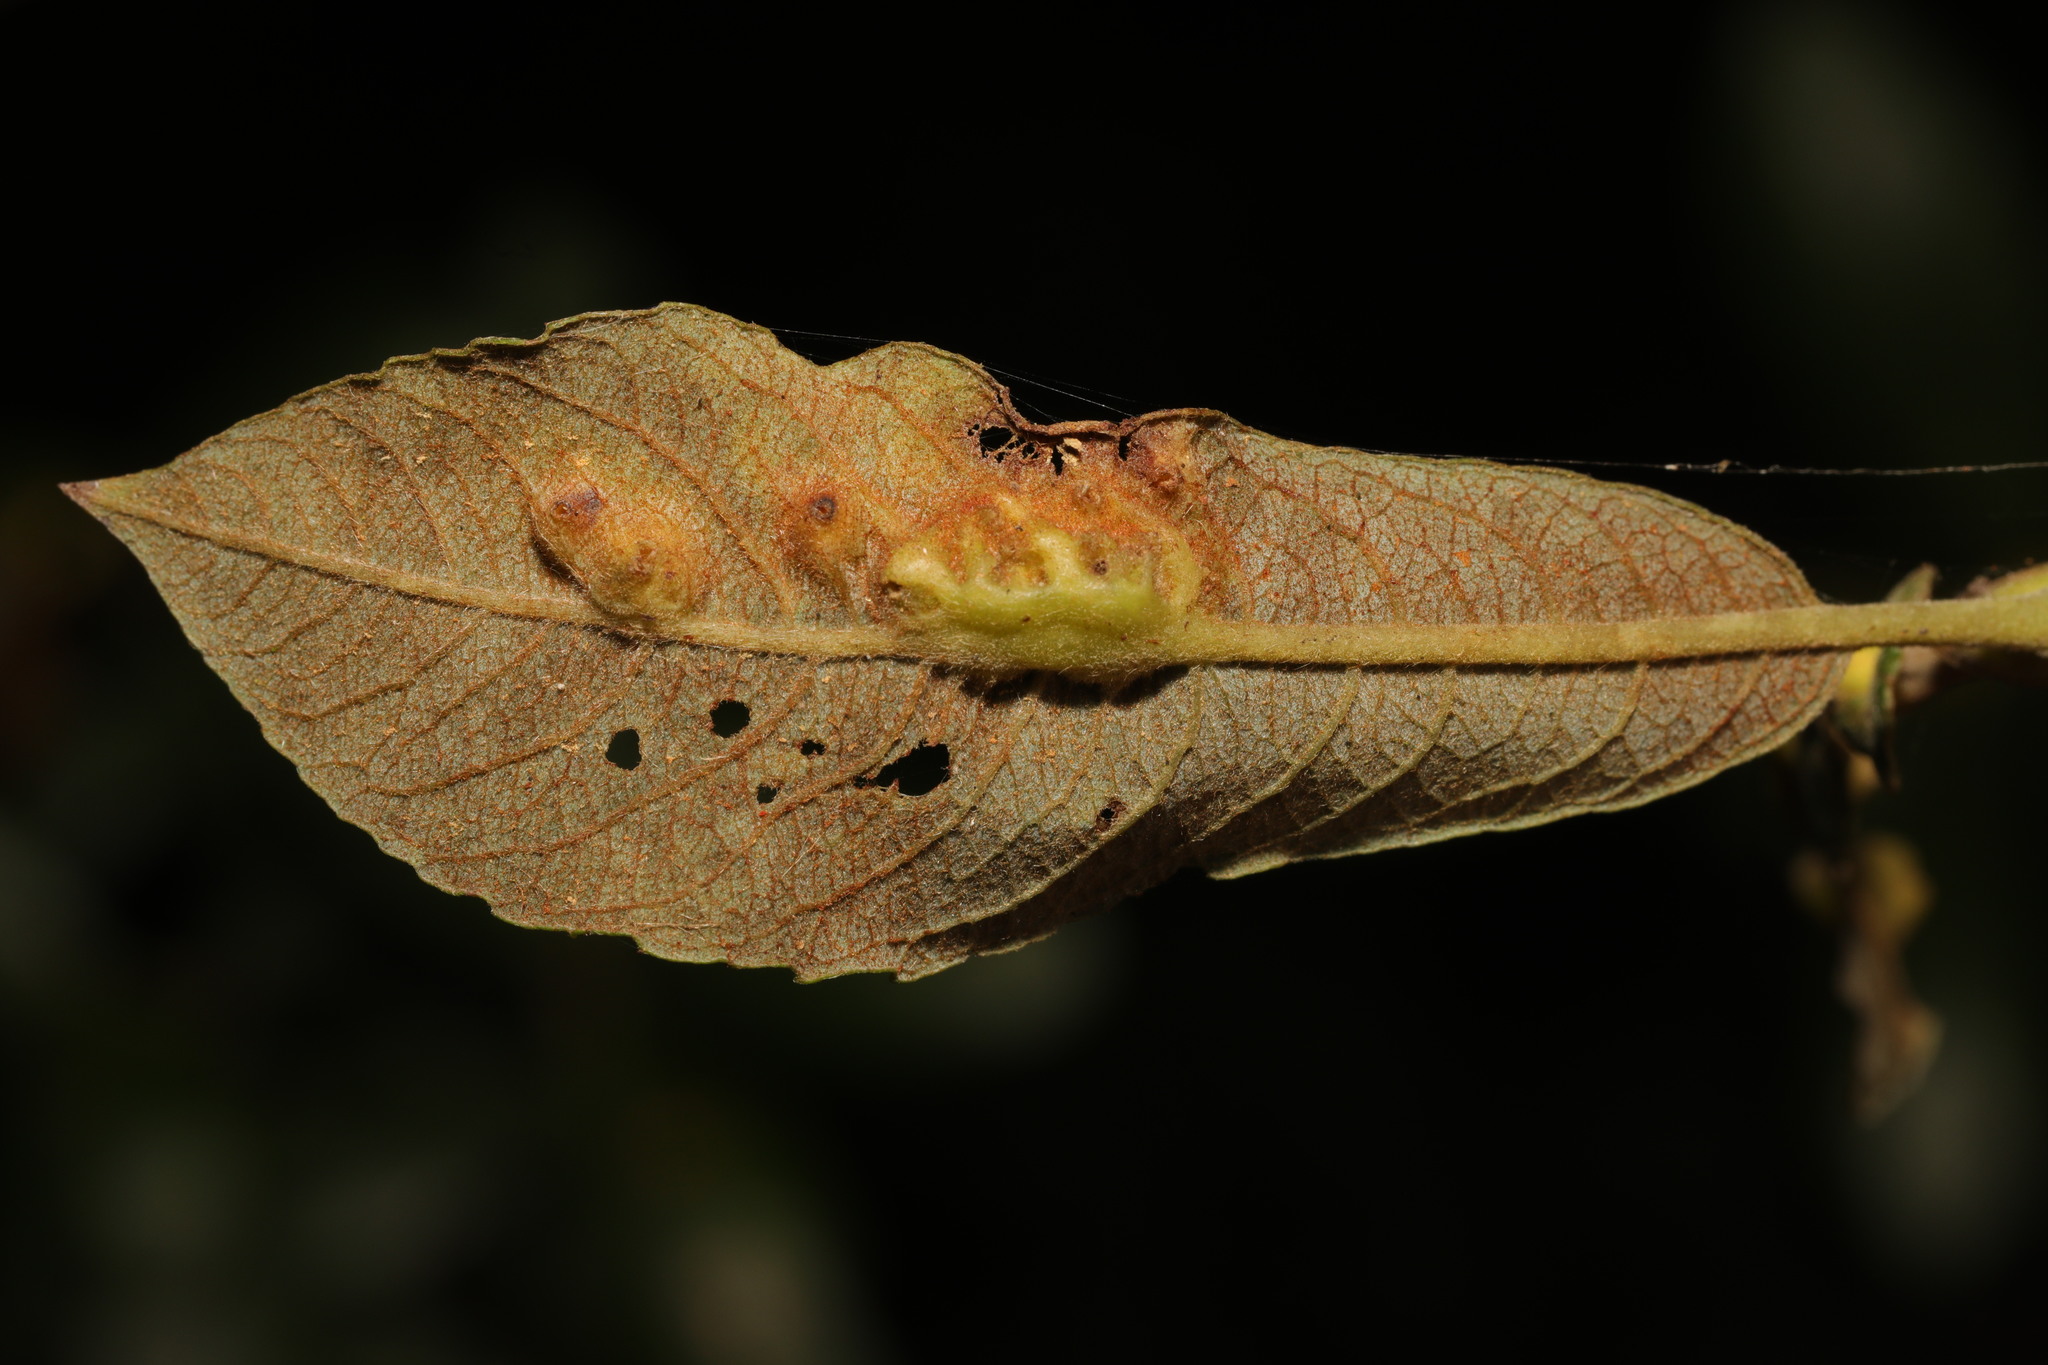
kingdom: Animalia
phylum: Arthropoda
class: Insecta
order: Diptera
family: Cecidomyiidae
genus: Iteomyia
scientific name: Iteomyia major
